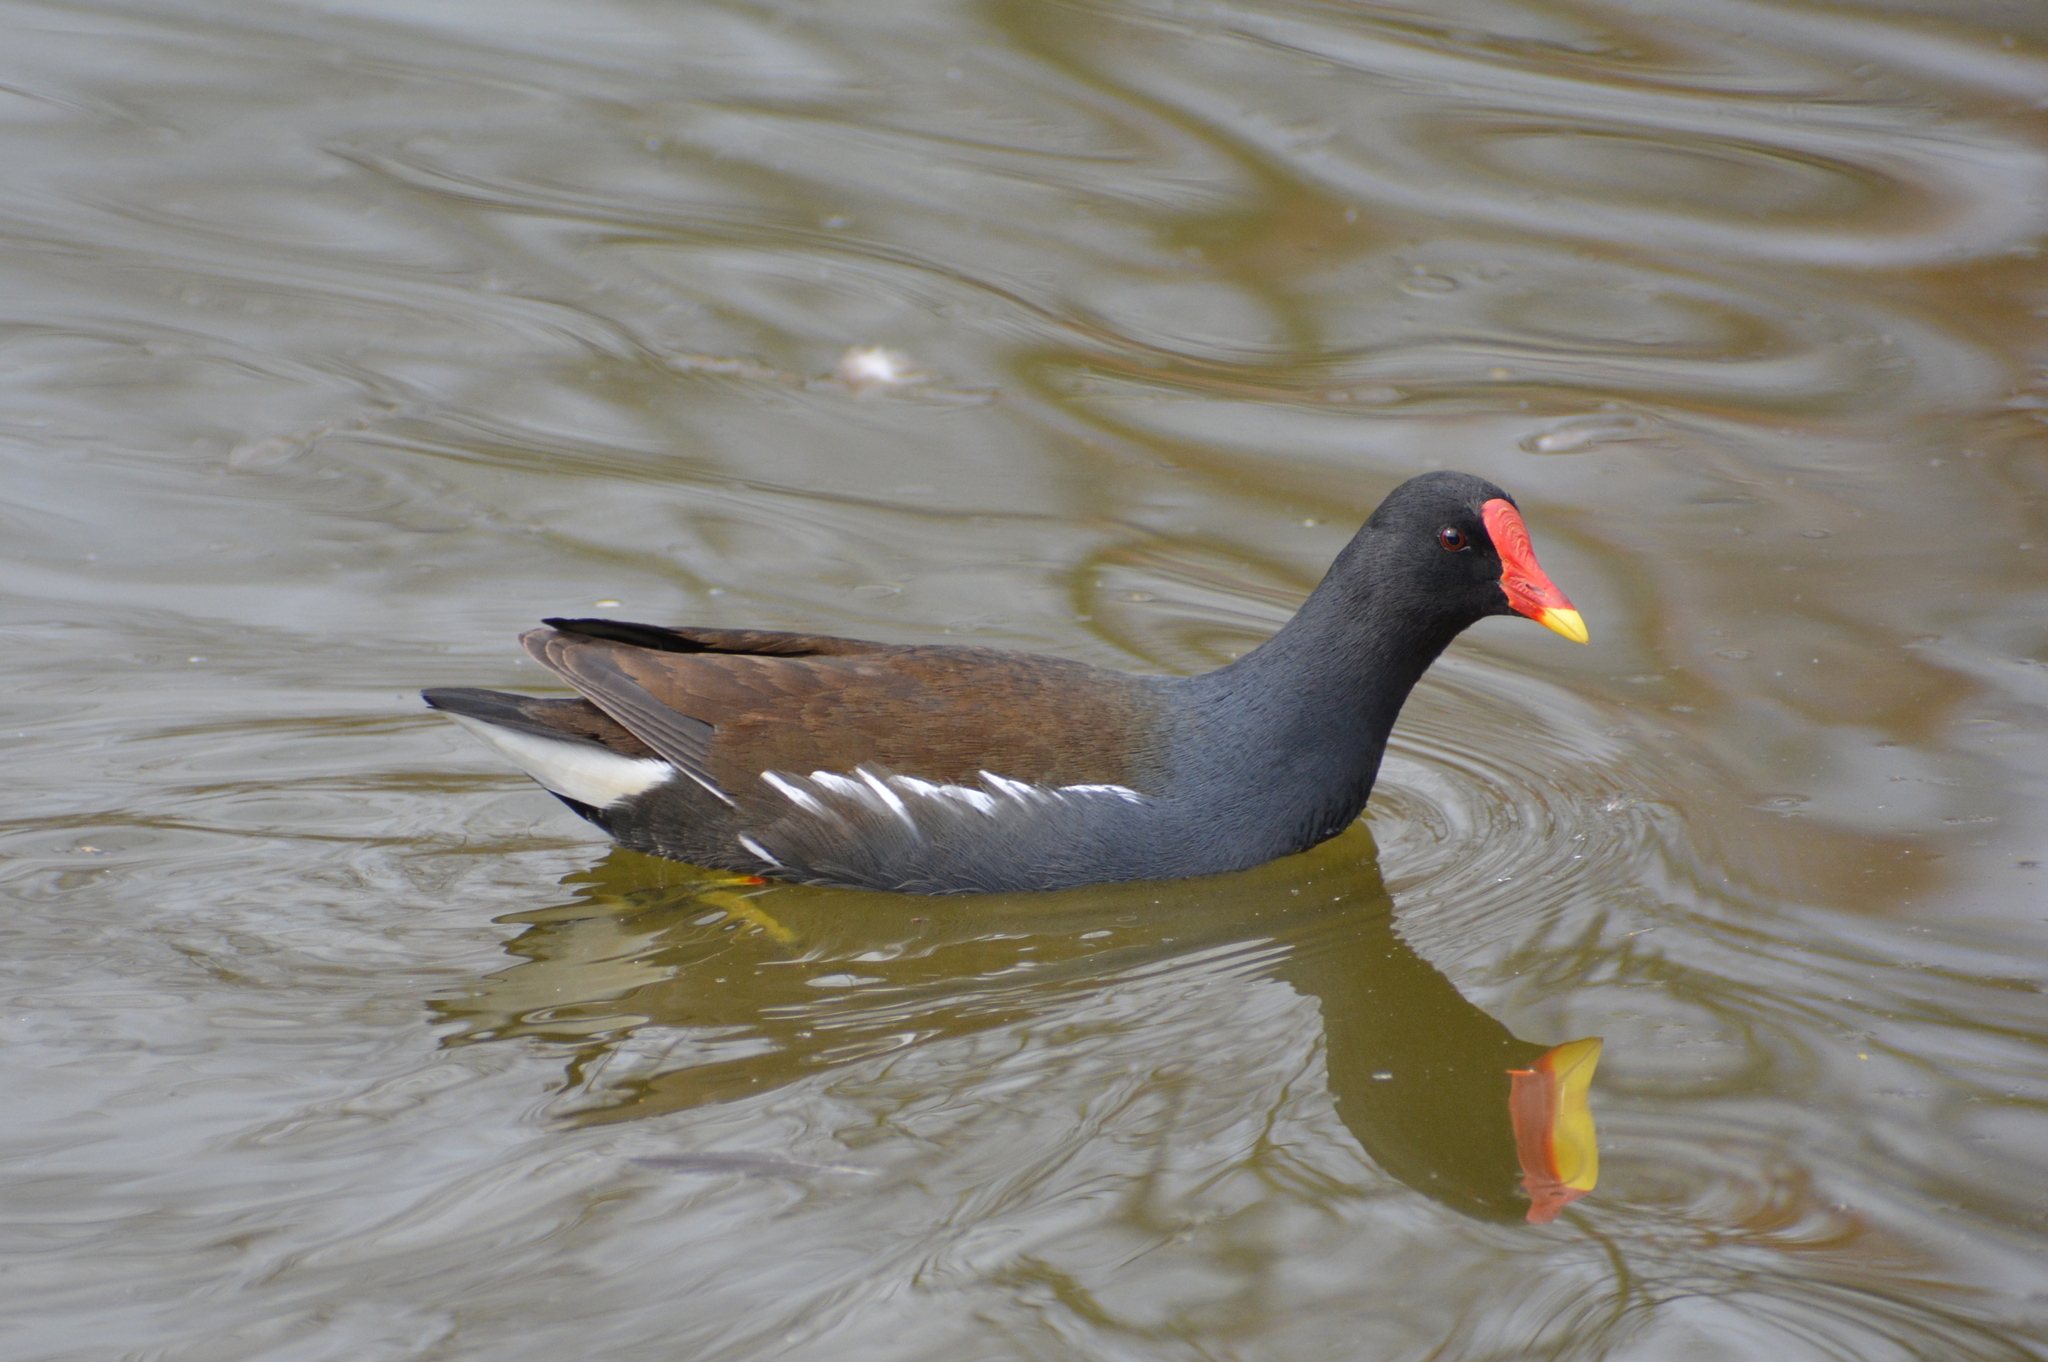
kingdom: Animalia
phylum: Chordata
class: Aves
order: Gruiformes
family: Rallidae
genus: Gallinula
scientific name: Gallinula chloropus
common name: Common moorhen
